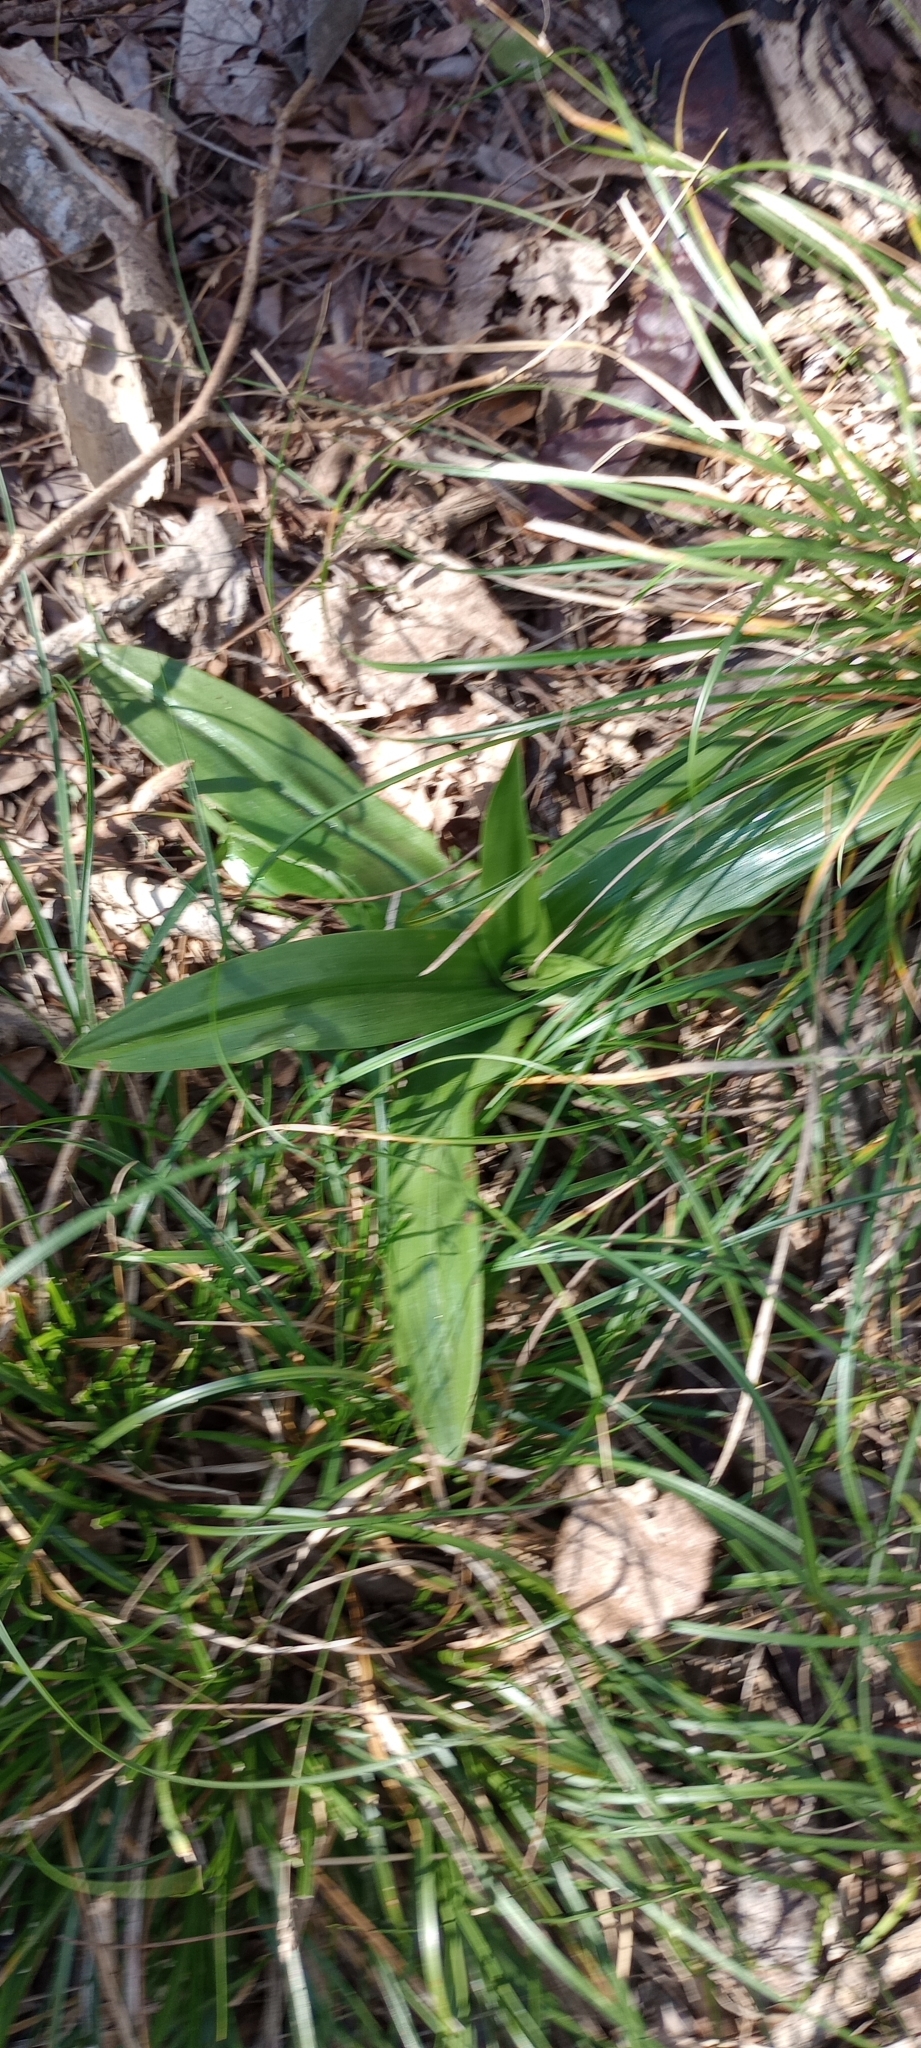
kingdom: Plantae
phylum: Tracheophyta
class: Liliopsida
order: Asparagales
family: Orchidaceae
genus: Chloraea
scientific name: Chloraea membranacea
